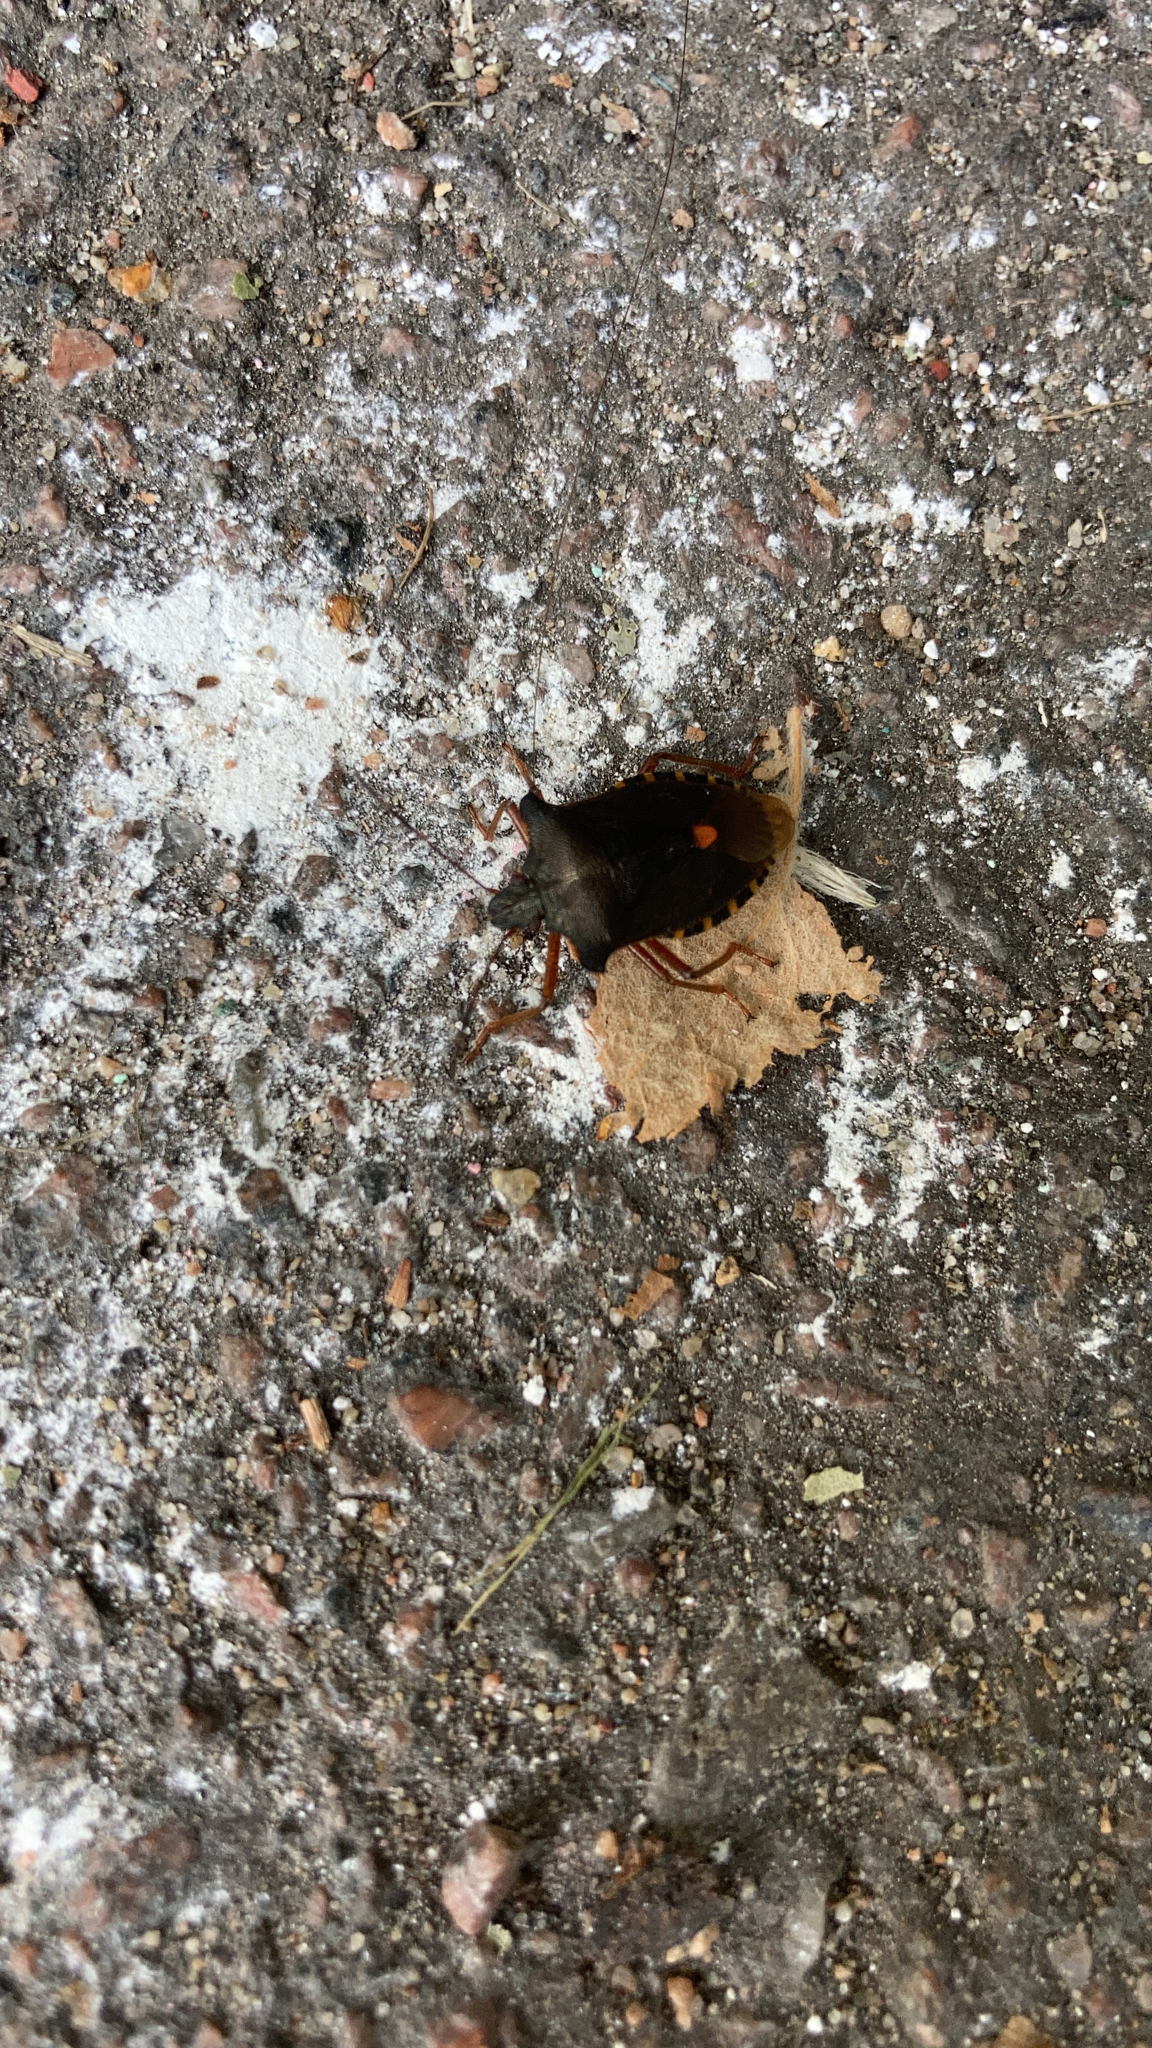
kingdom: Animalia
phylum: Arthropoda
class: Insecta
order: Hemiptera
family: Pentatomidae
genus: Pentatoma
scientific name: Pentatoma rufipes
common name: Forest bug
